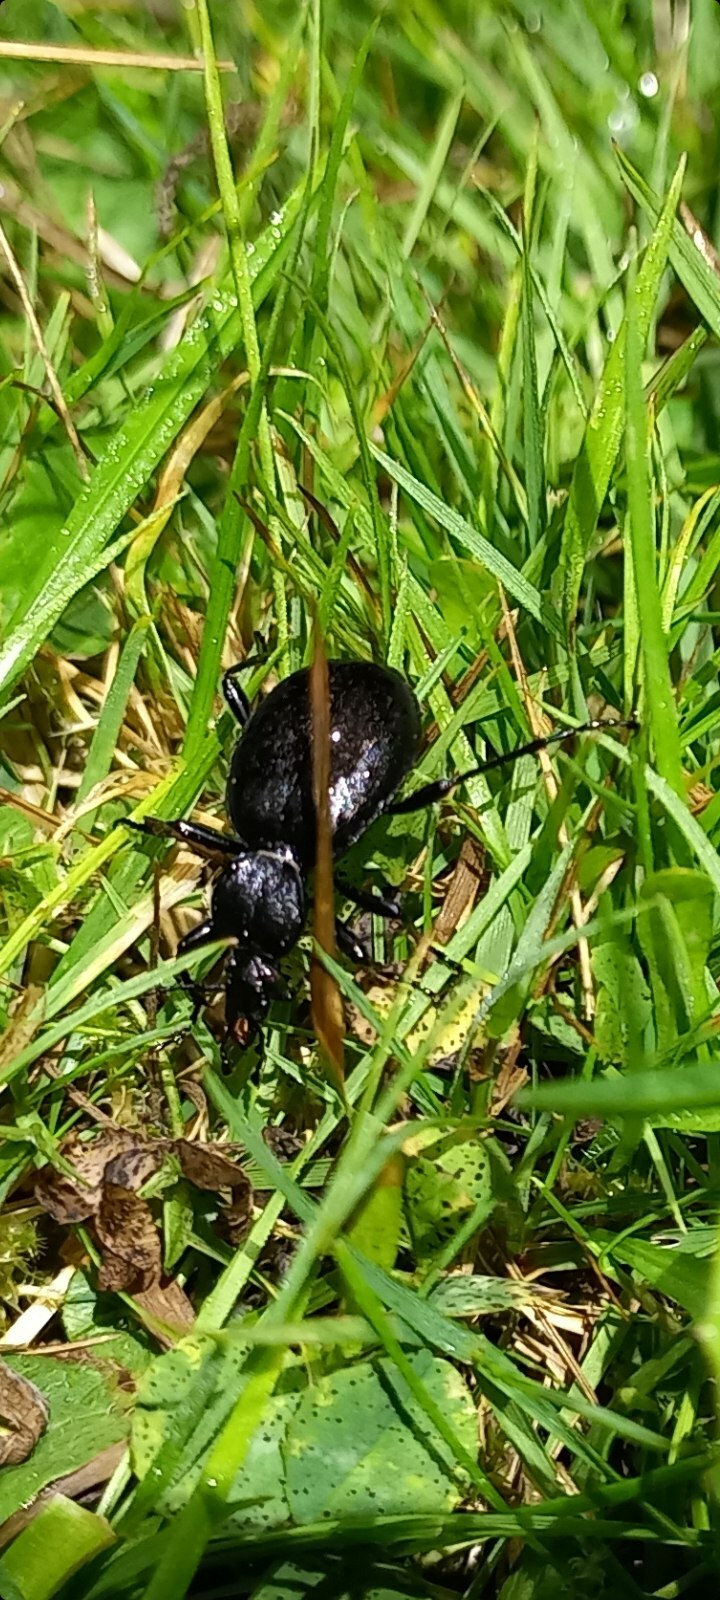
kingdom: Animalia
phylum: Arthropoda
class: Insecta
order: Coleoptera
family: Carabidae
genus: Cychrus
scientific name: Cychrus caraboides
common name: Snail hunter
